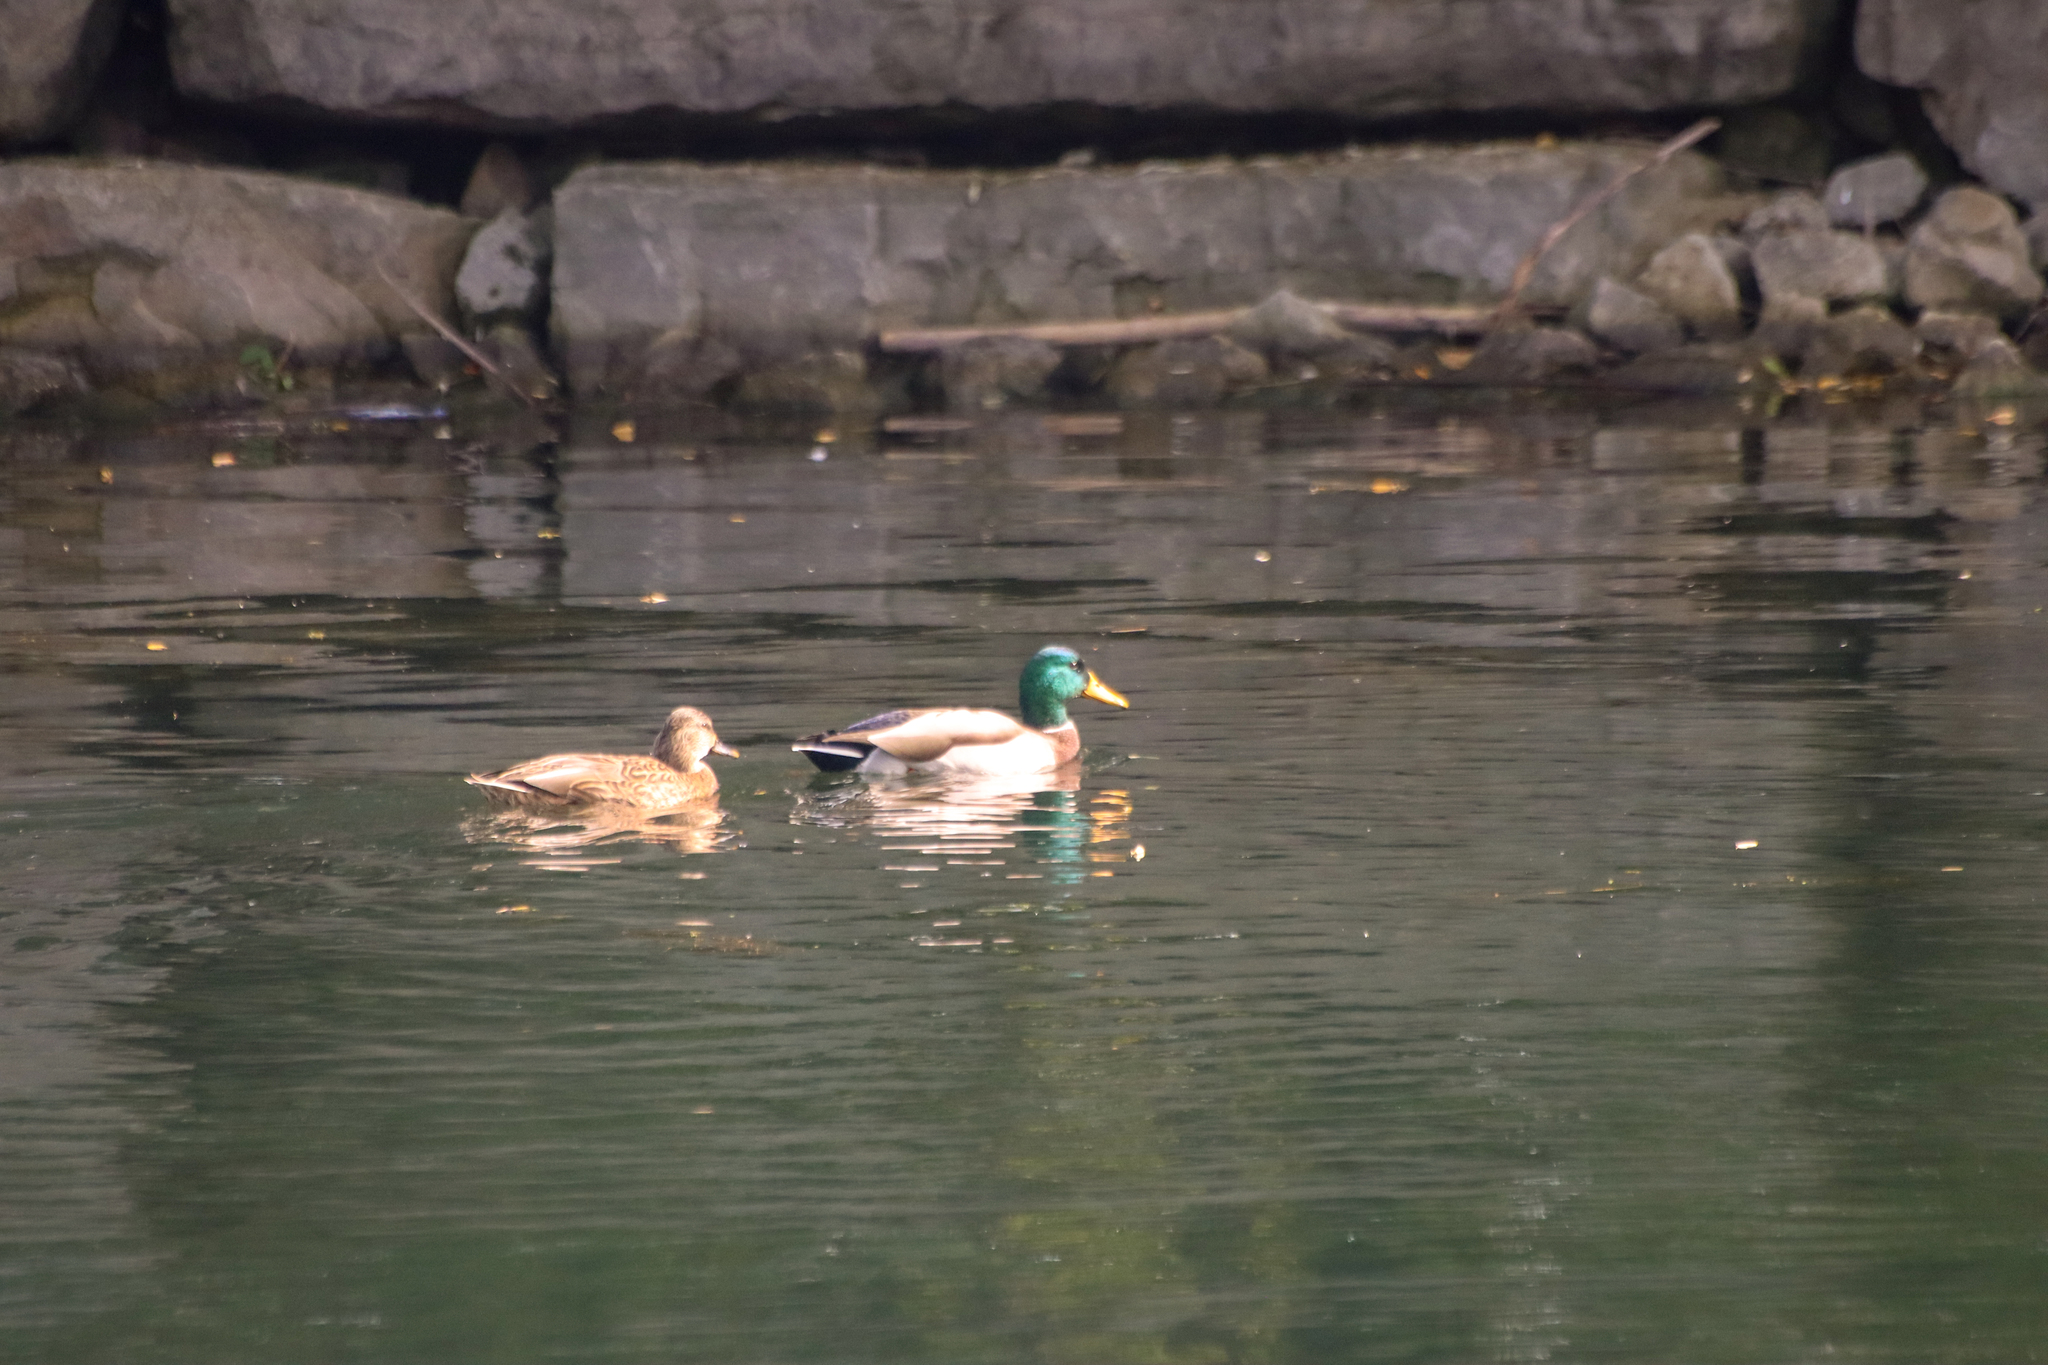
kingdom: Animalia
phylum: Chordata
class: Aves
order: Anseriformes
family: Anatidae
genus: Anas
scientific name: Anas platyrhynchos
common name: Mallard
